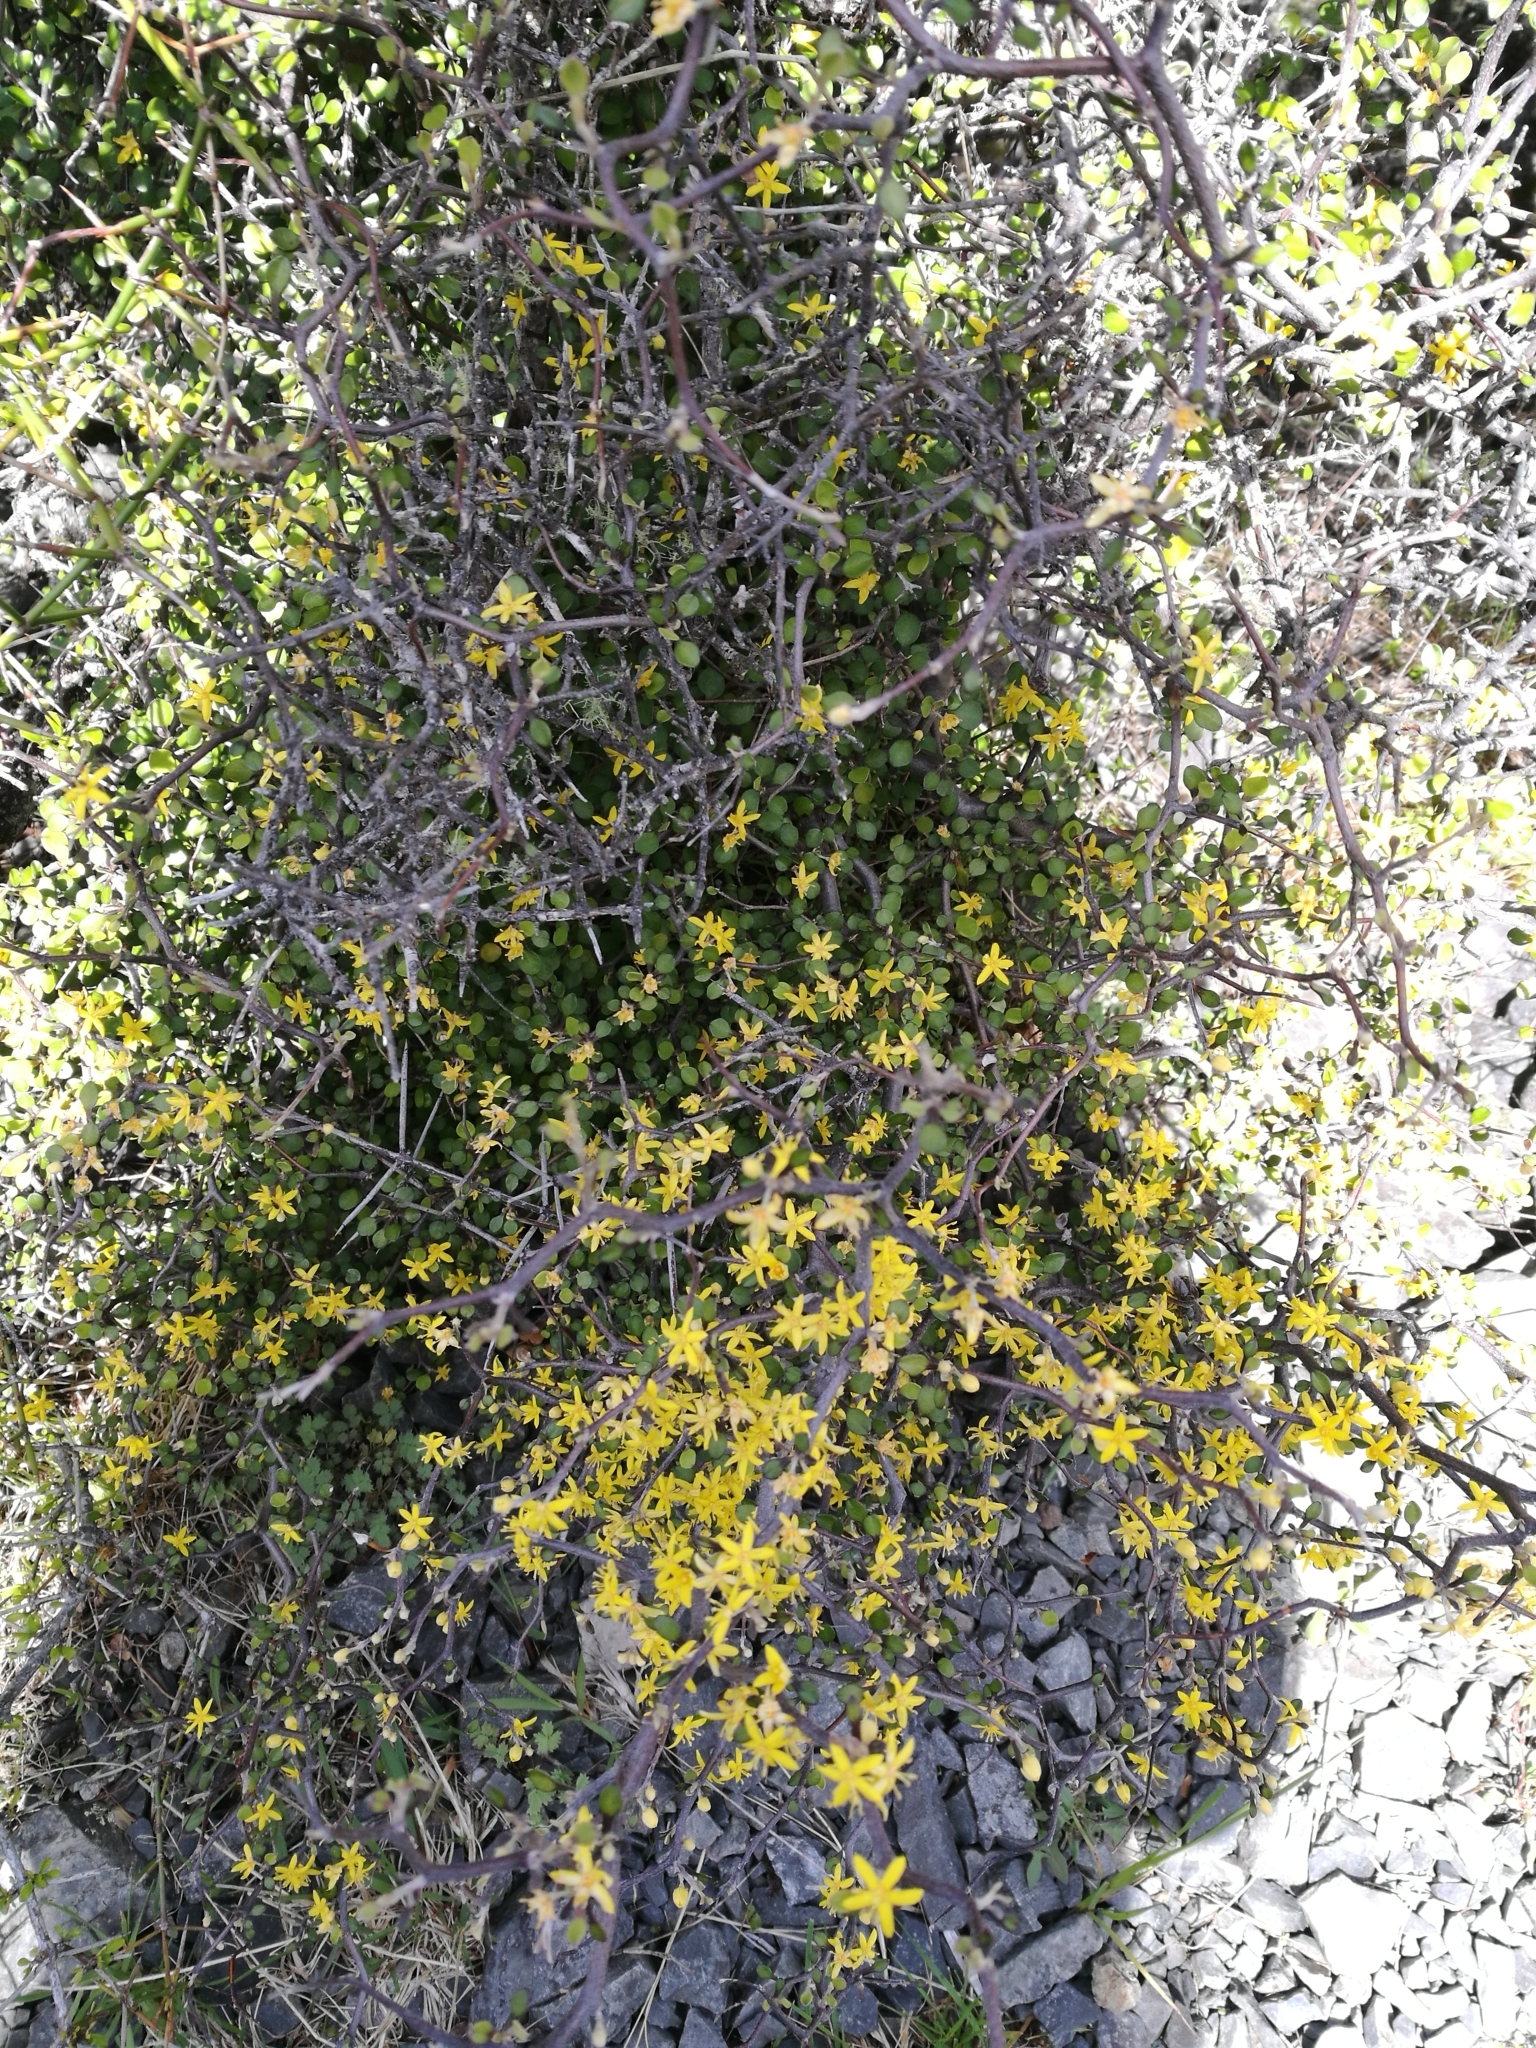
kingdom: Plantae
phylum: Tracheophyta
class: Magnoliopsida
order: Asterales
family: Argophyllaceae
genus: Corokia
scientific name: Corokia cotoneaster
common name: Wire nettingbush
